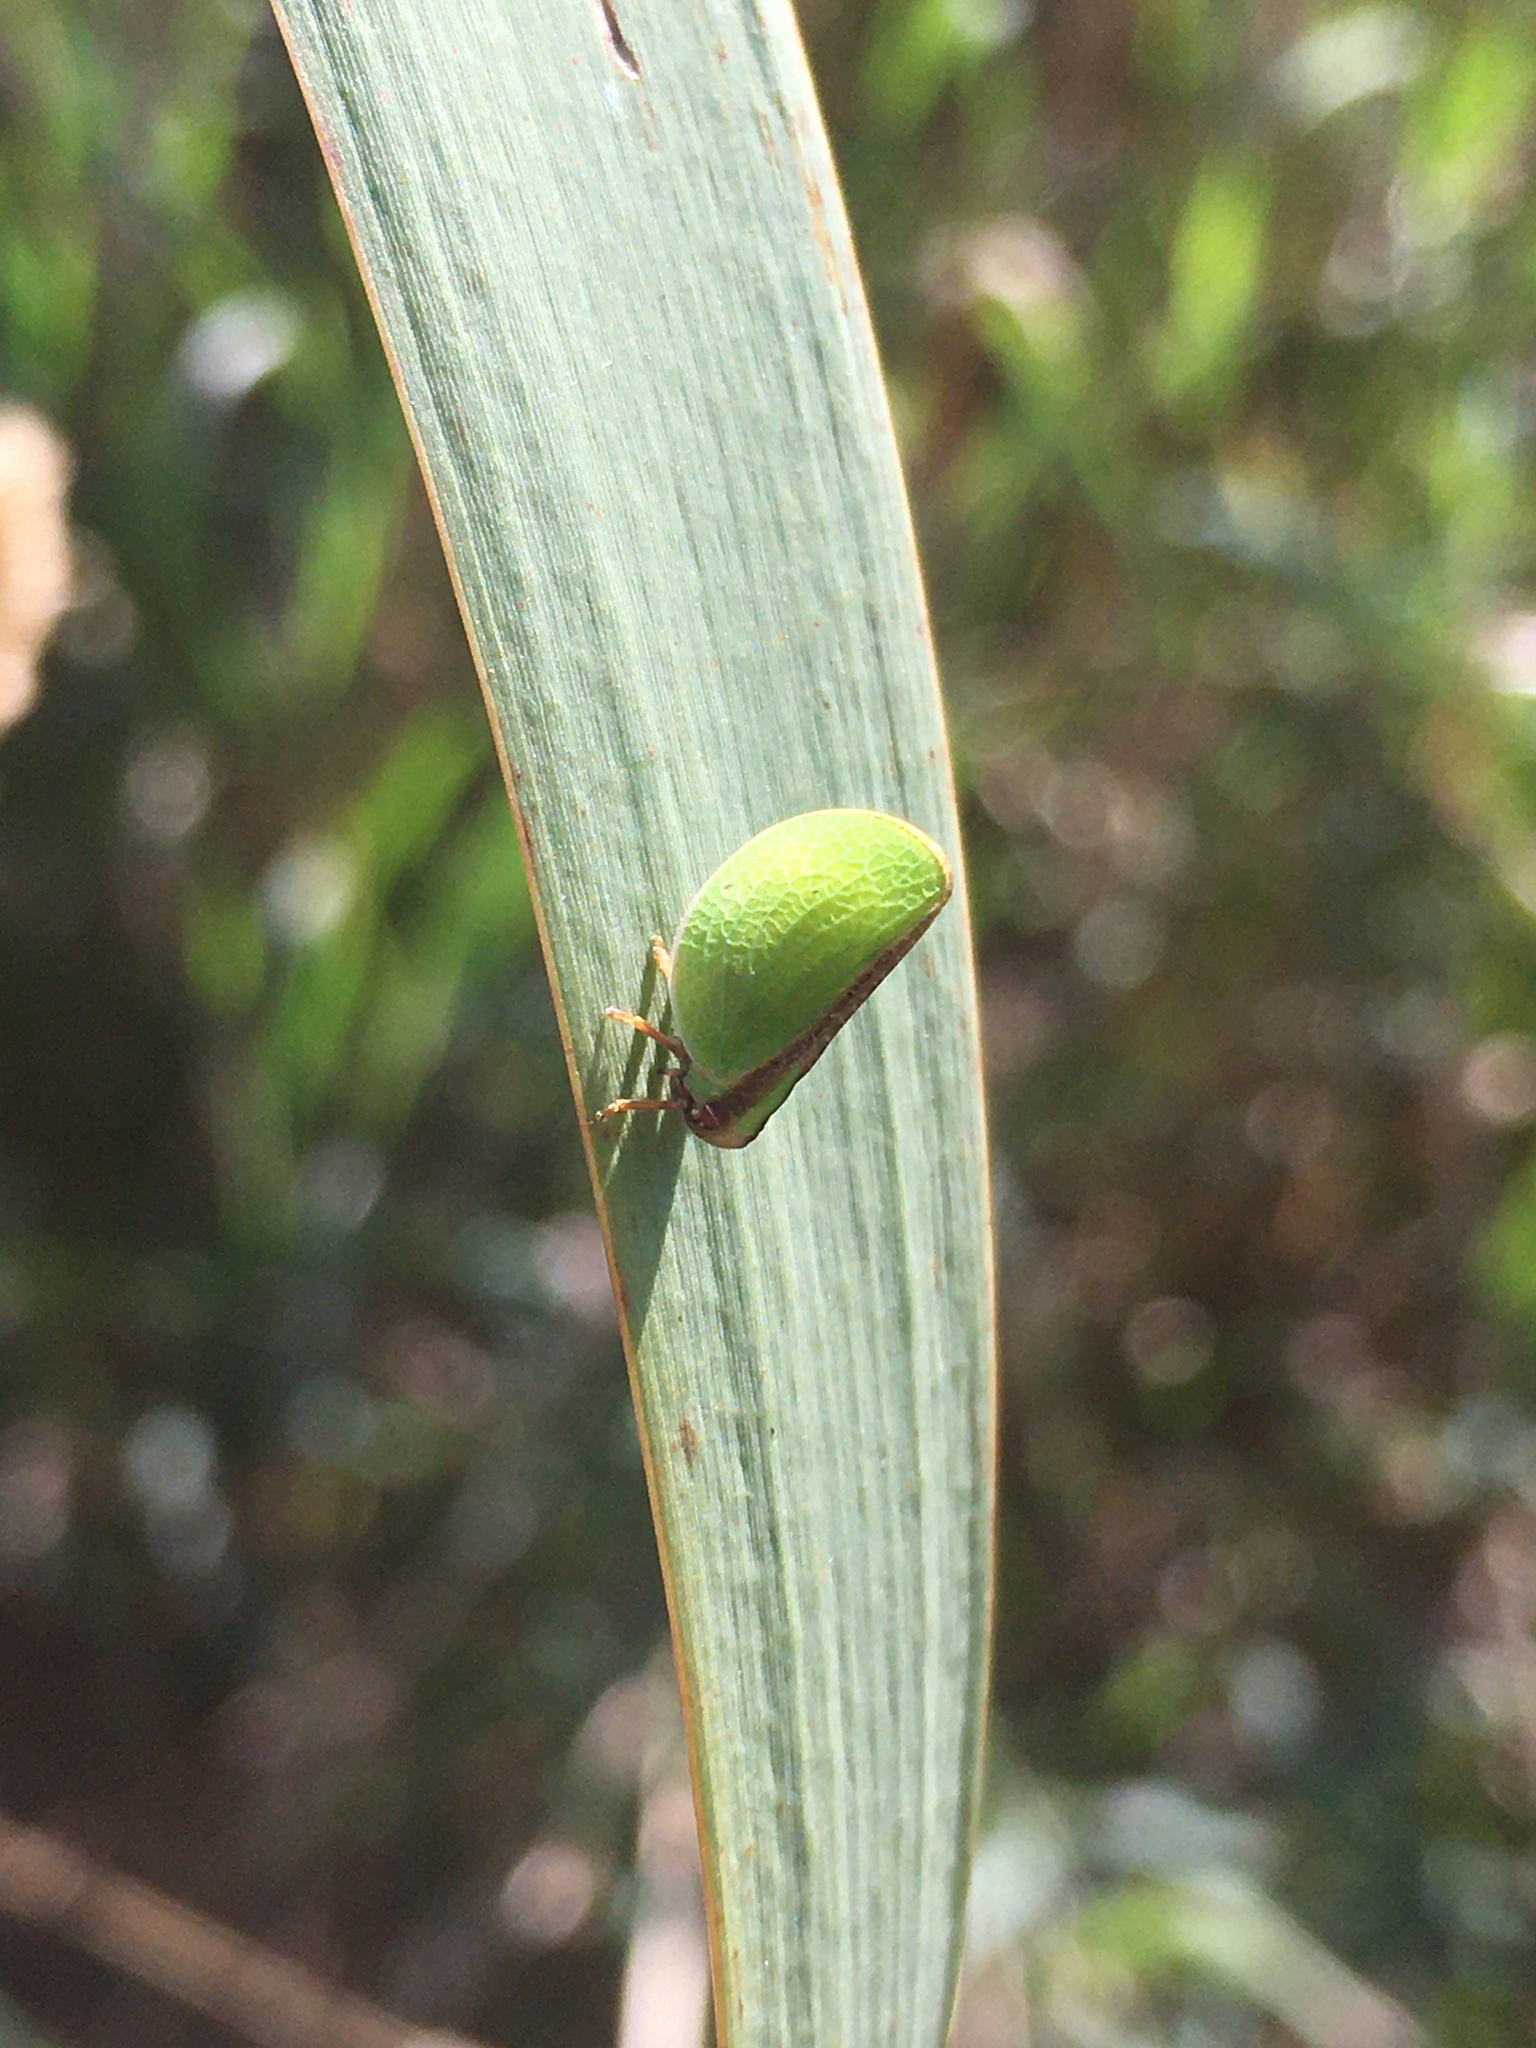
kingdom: Animalia
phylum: Arthropoda
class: Insecta
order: Hemiptera
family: Acanaloniidae
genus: Acanalonia
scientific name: Acanalonia bivittata
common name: Two-striped planthopper
